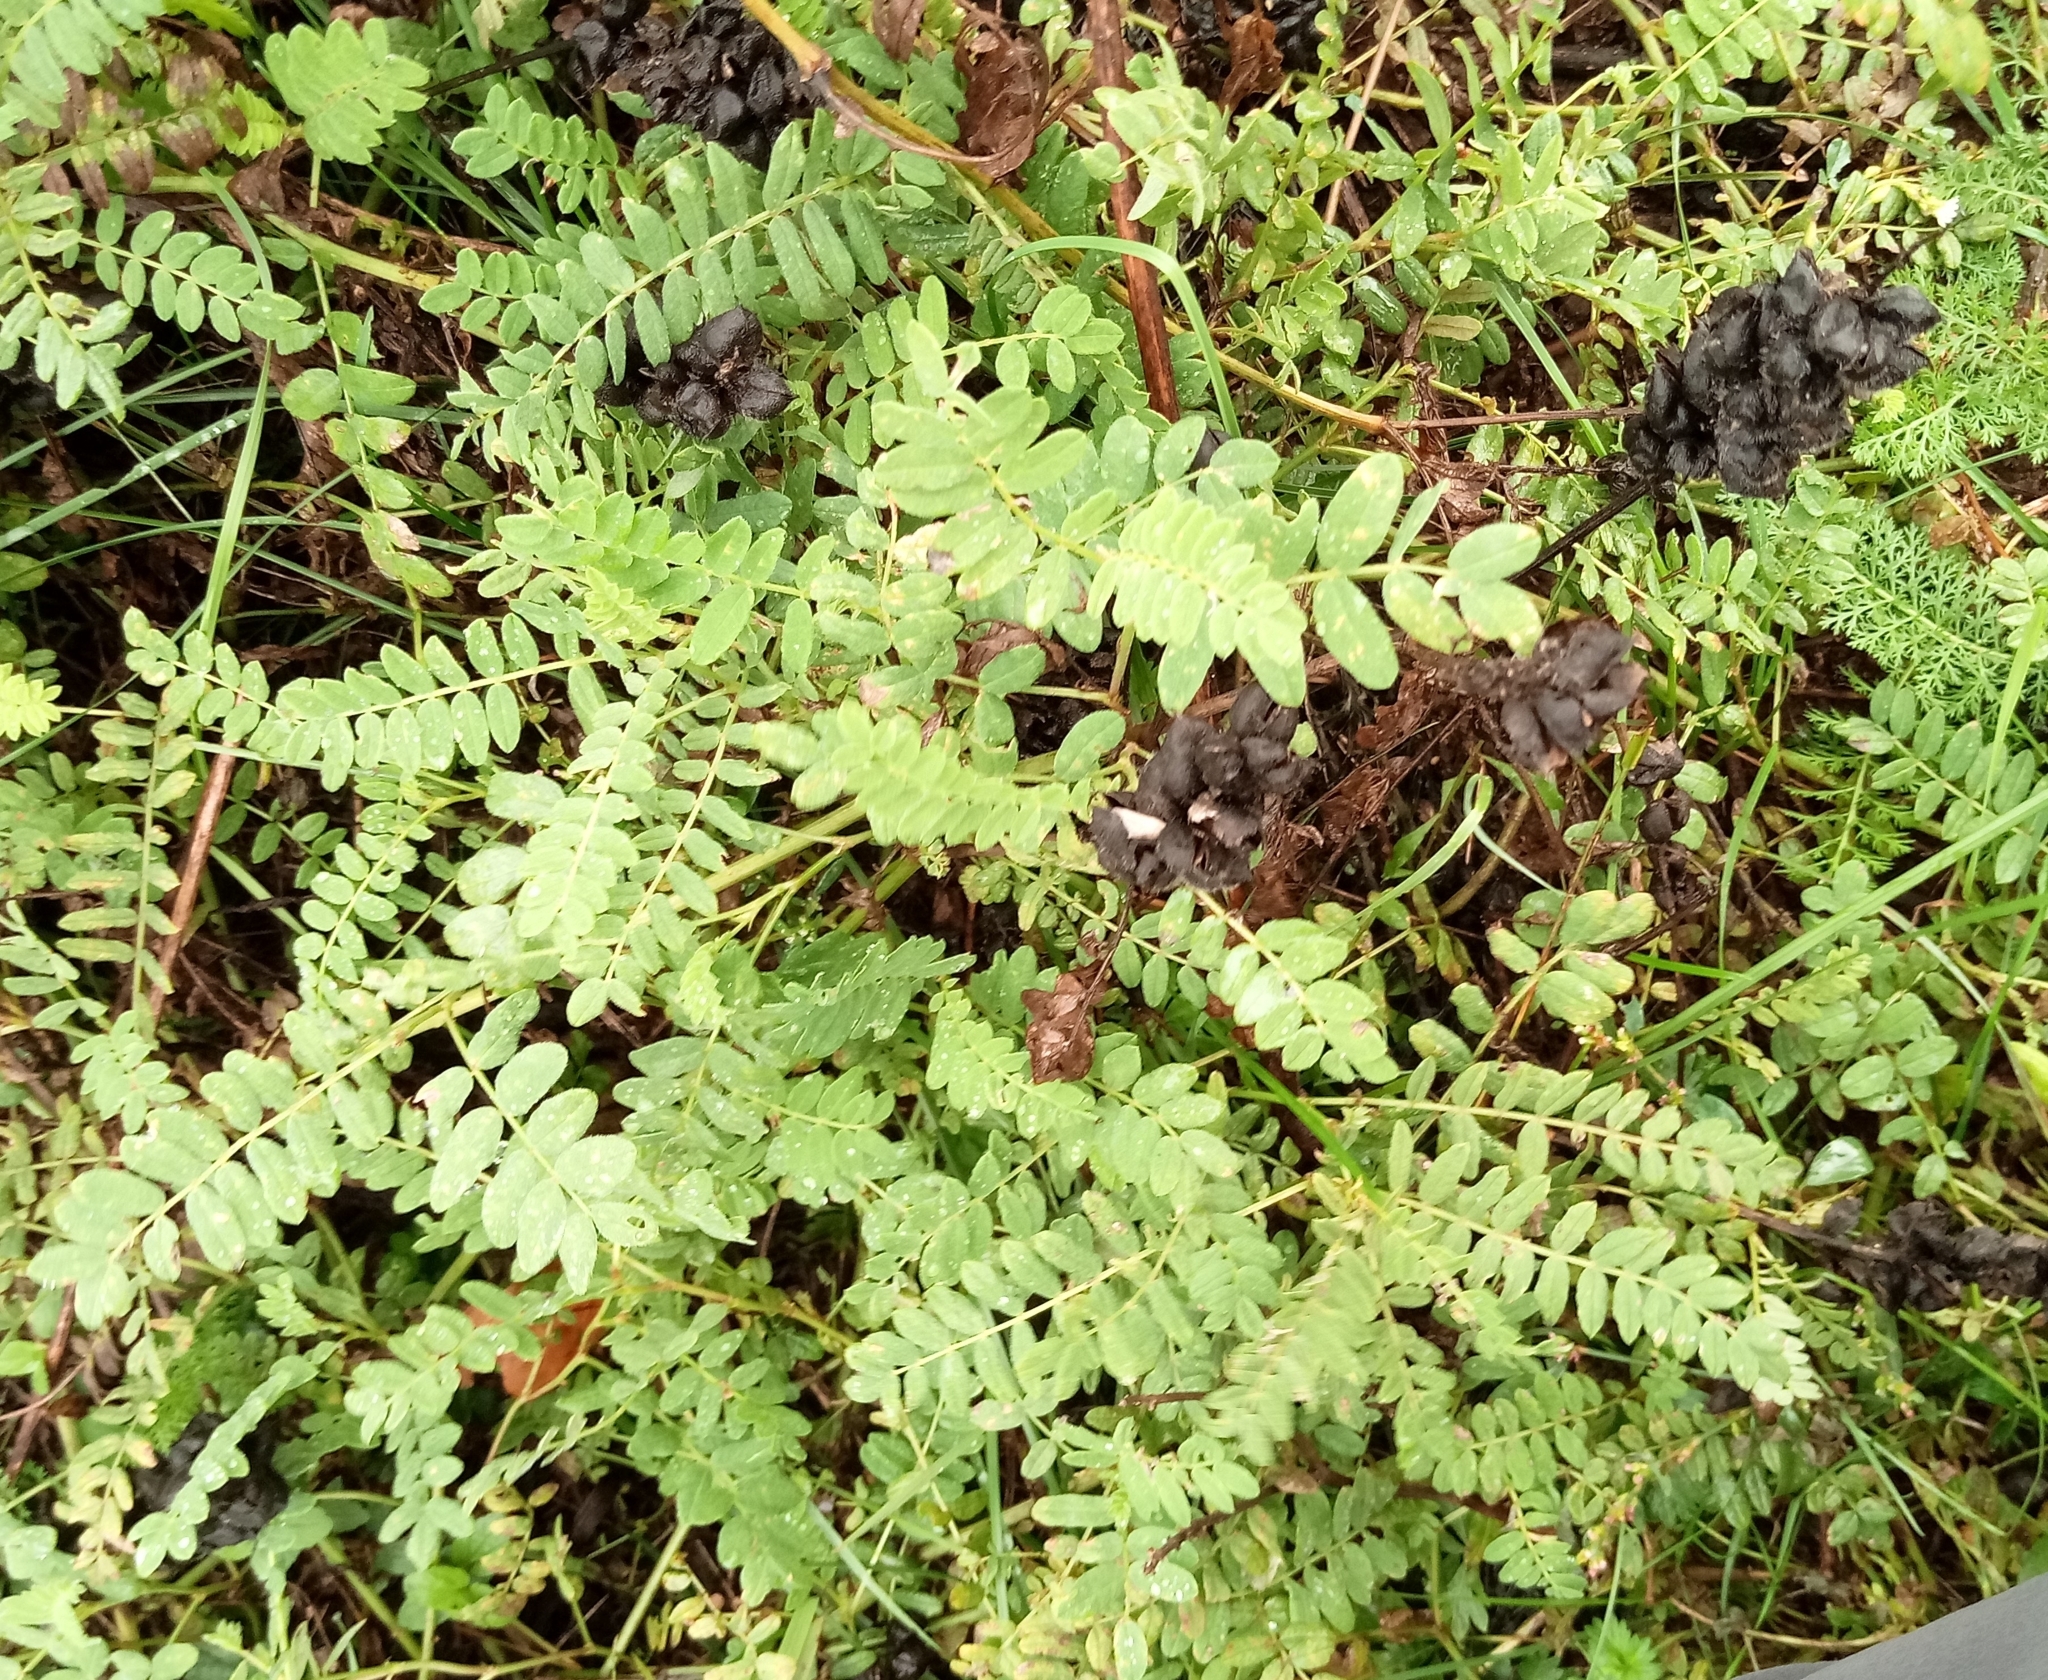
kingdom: Plantae
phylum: Tracheophyta
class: Magnoliopsida
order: Fabales
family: Fabaceae
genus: Astragalus
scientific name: Astragalus cicer
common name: Chick-pea milk-vetch
